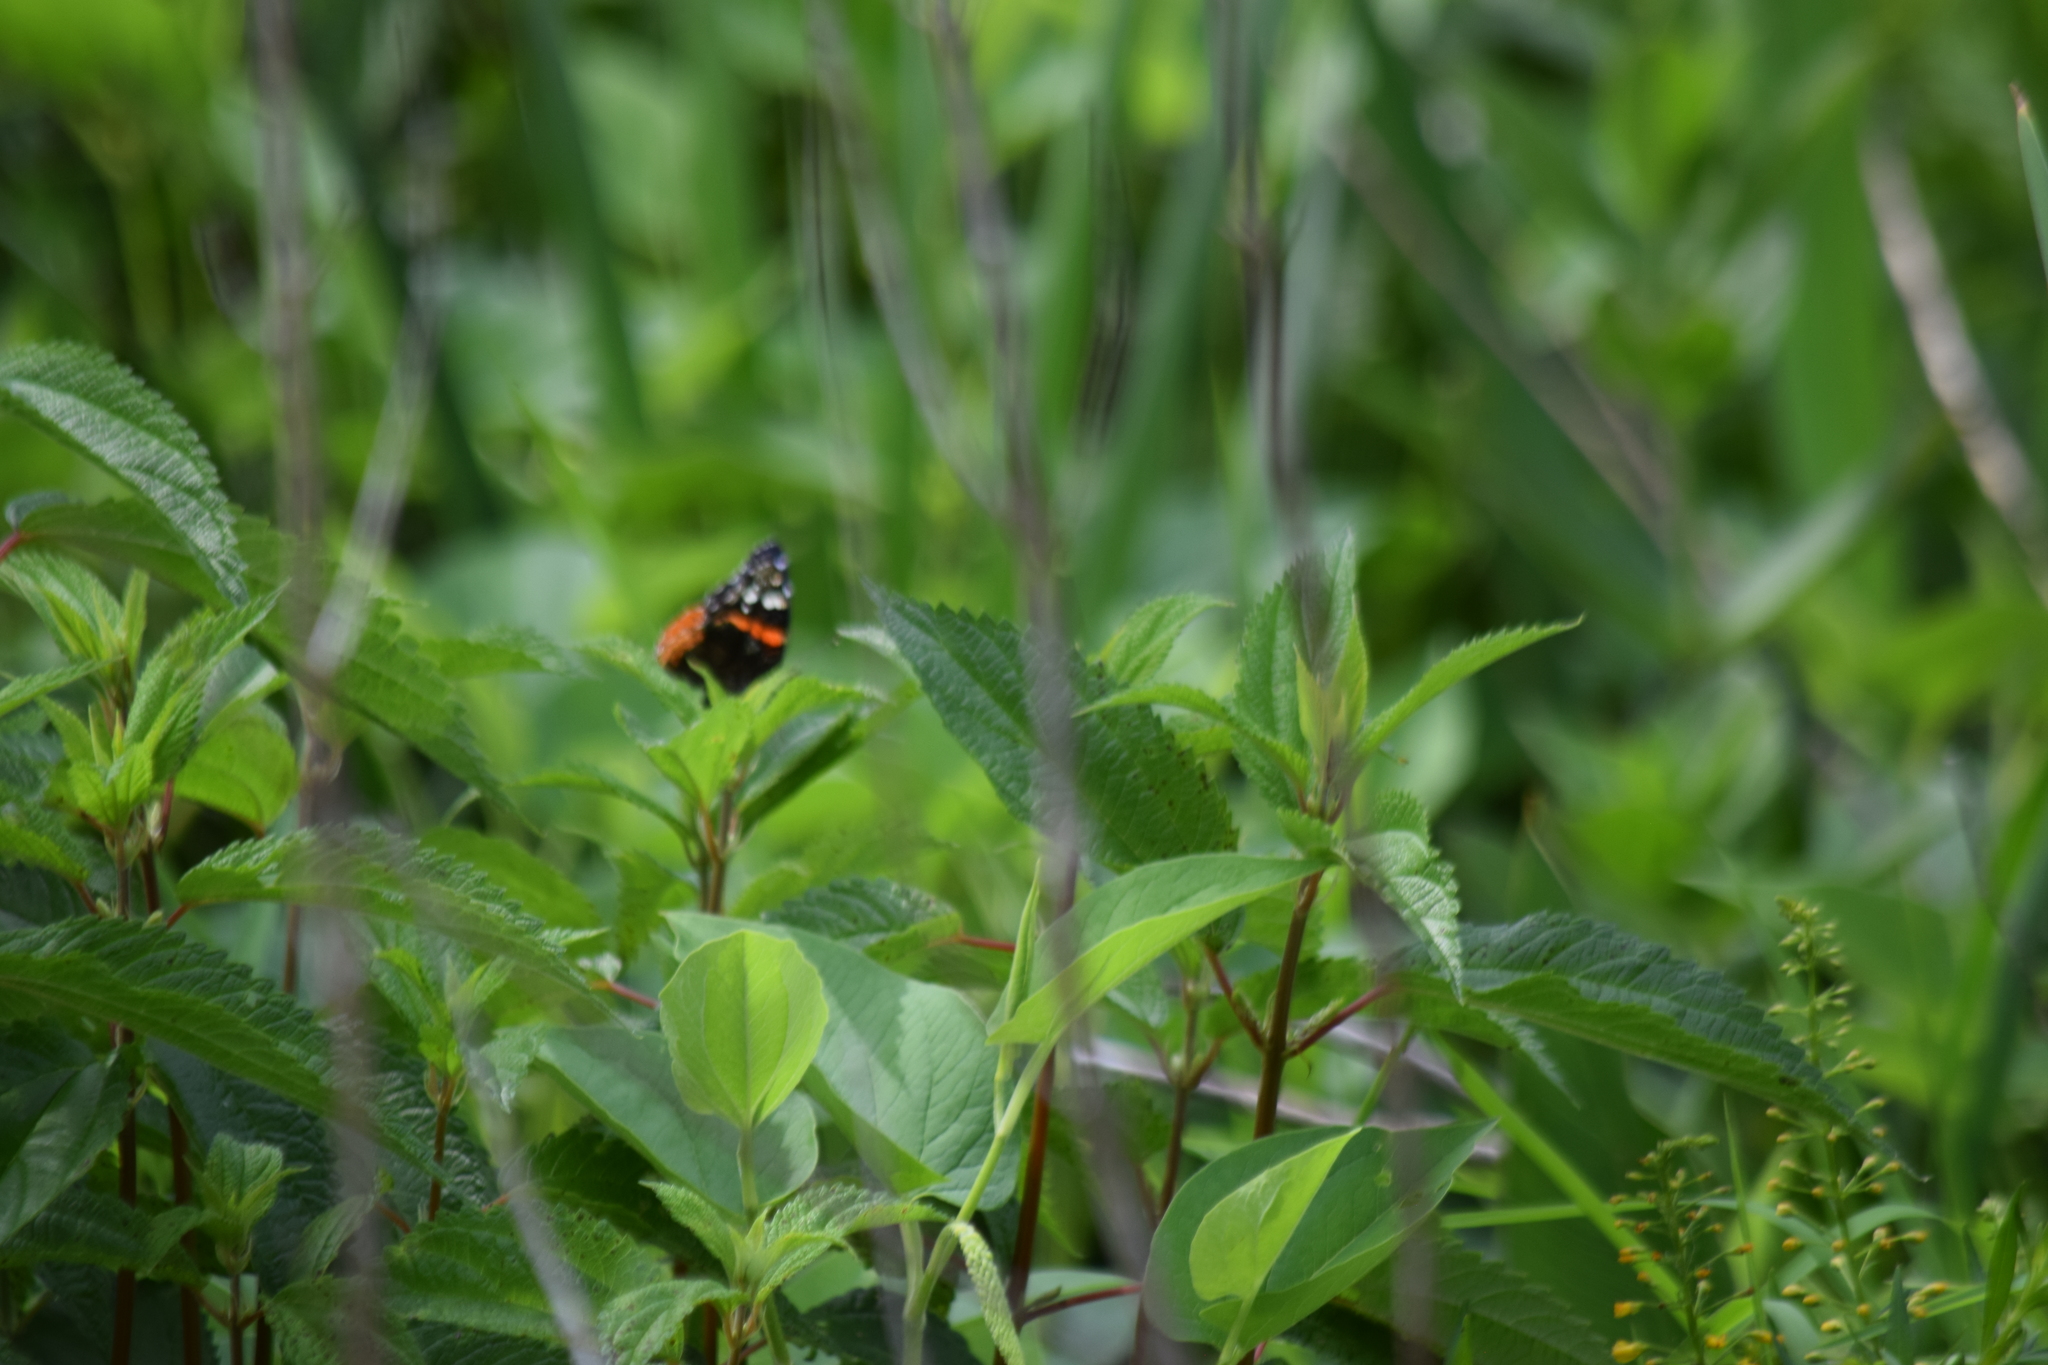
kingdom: Animalia
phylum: Arthropoda
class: Insecta
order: Lepidoptera
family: Nymphalidae
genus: Vanessa
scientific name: Vanessa atalanta
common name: Red admiral
